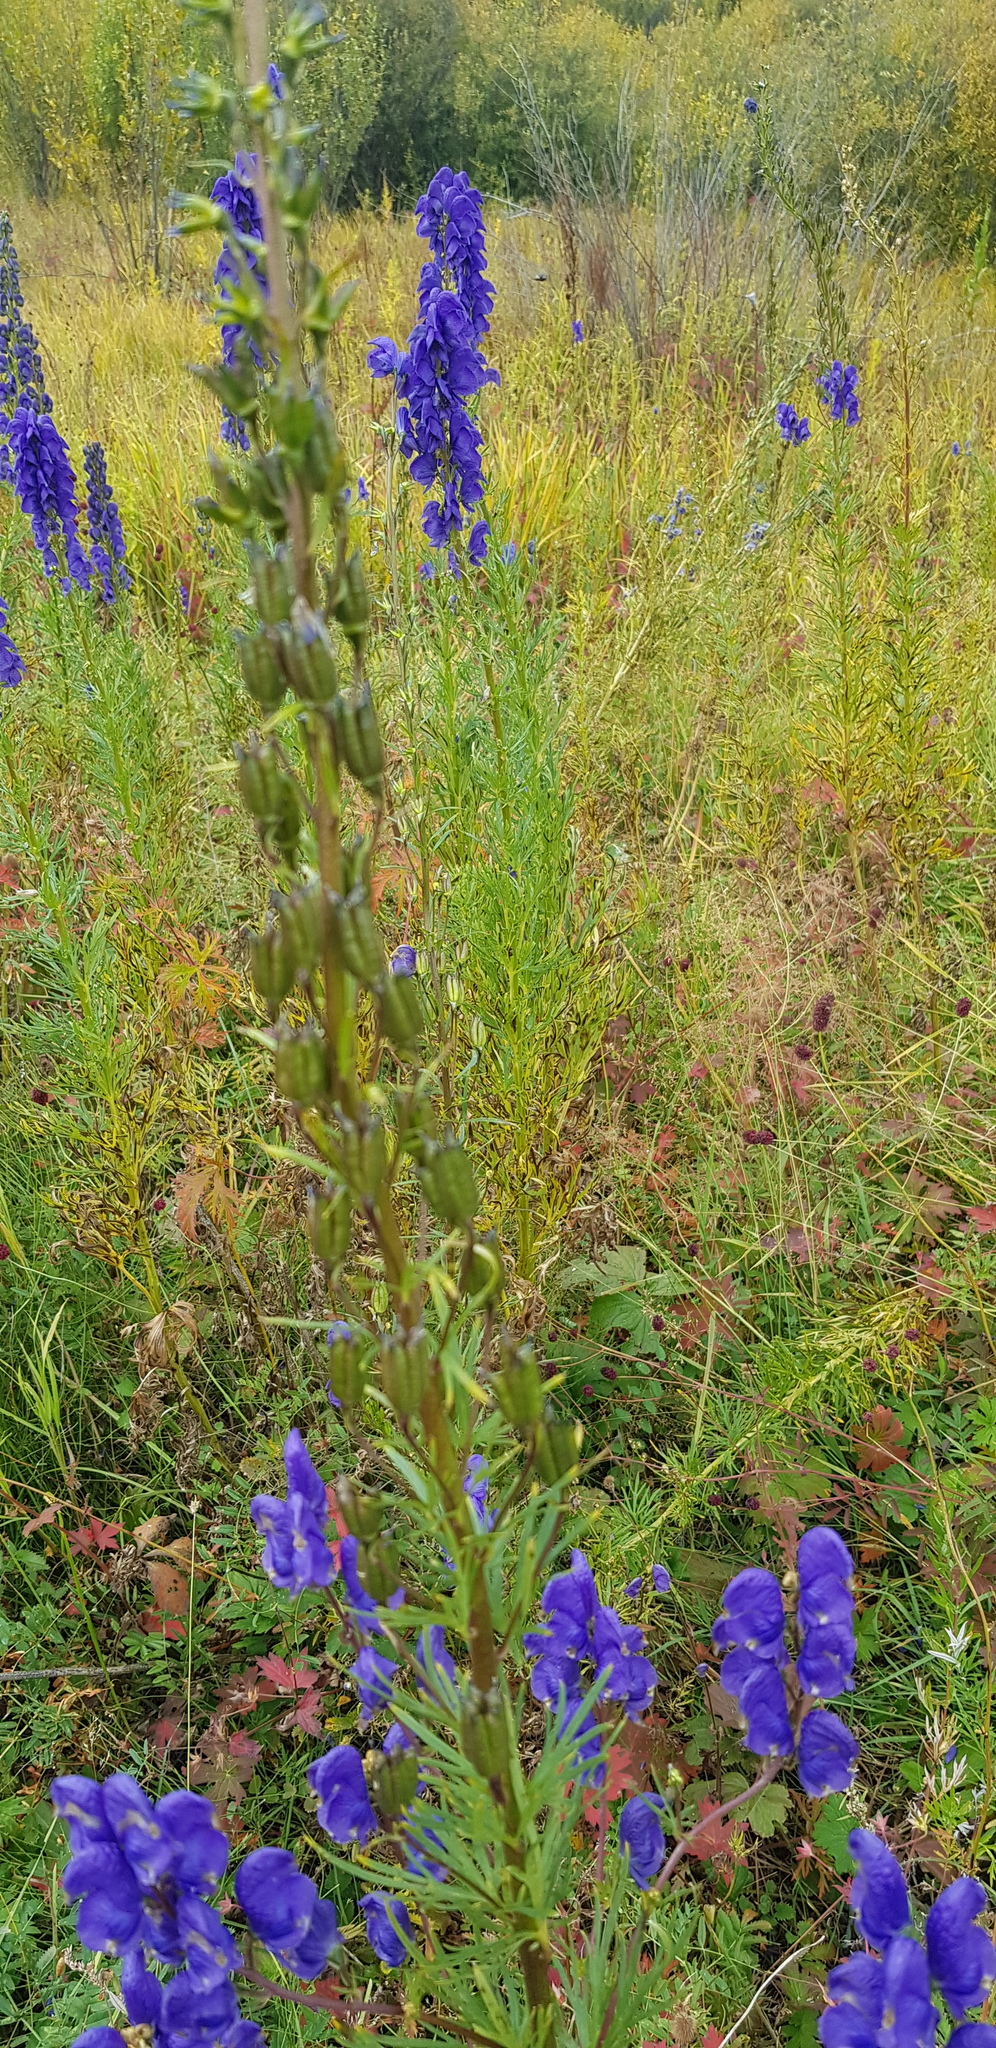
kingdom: Plantae
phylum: Tracheophyta
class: Magnoliopsida
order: Ranunculales
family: Ranunculaceae
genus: Aconitum
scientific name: Aconitum baicalense
